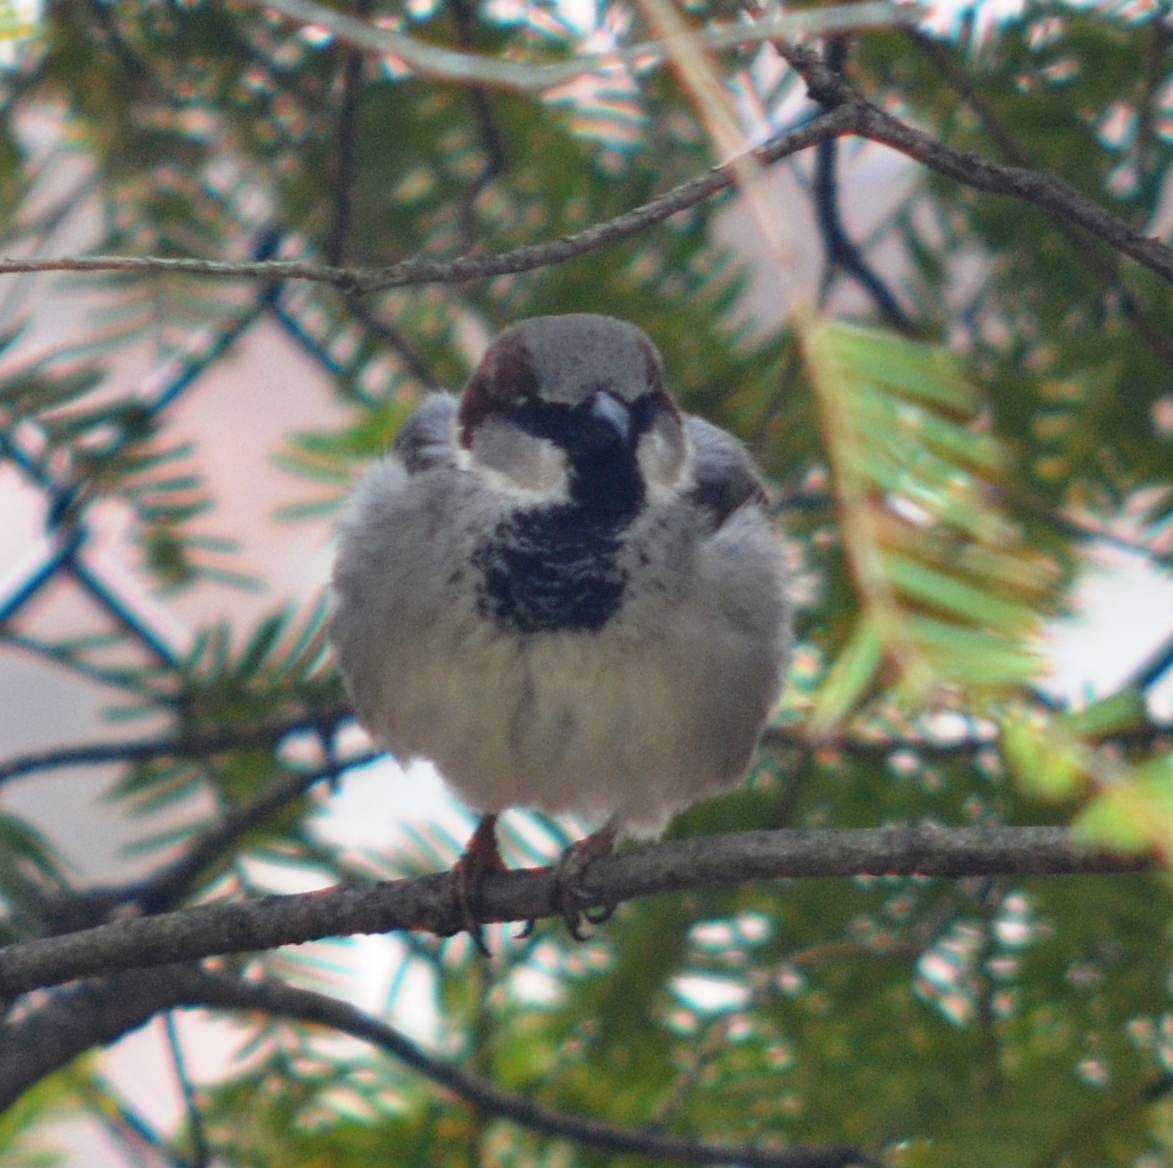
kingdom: Animalia
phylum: Chordata
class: Aves
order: Passeriformes
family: Passeridae
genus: Passer
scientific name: Passer domesticus
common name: House sparrow
